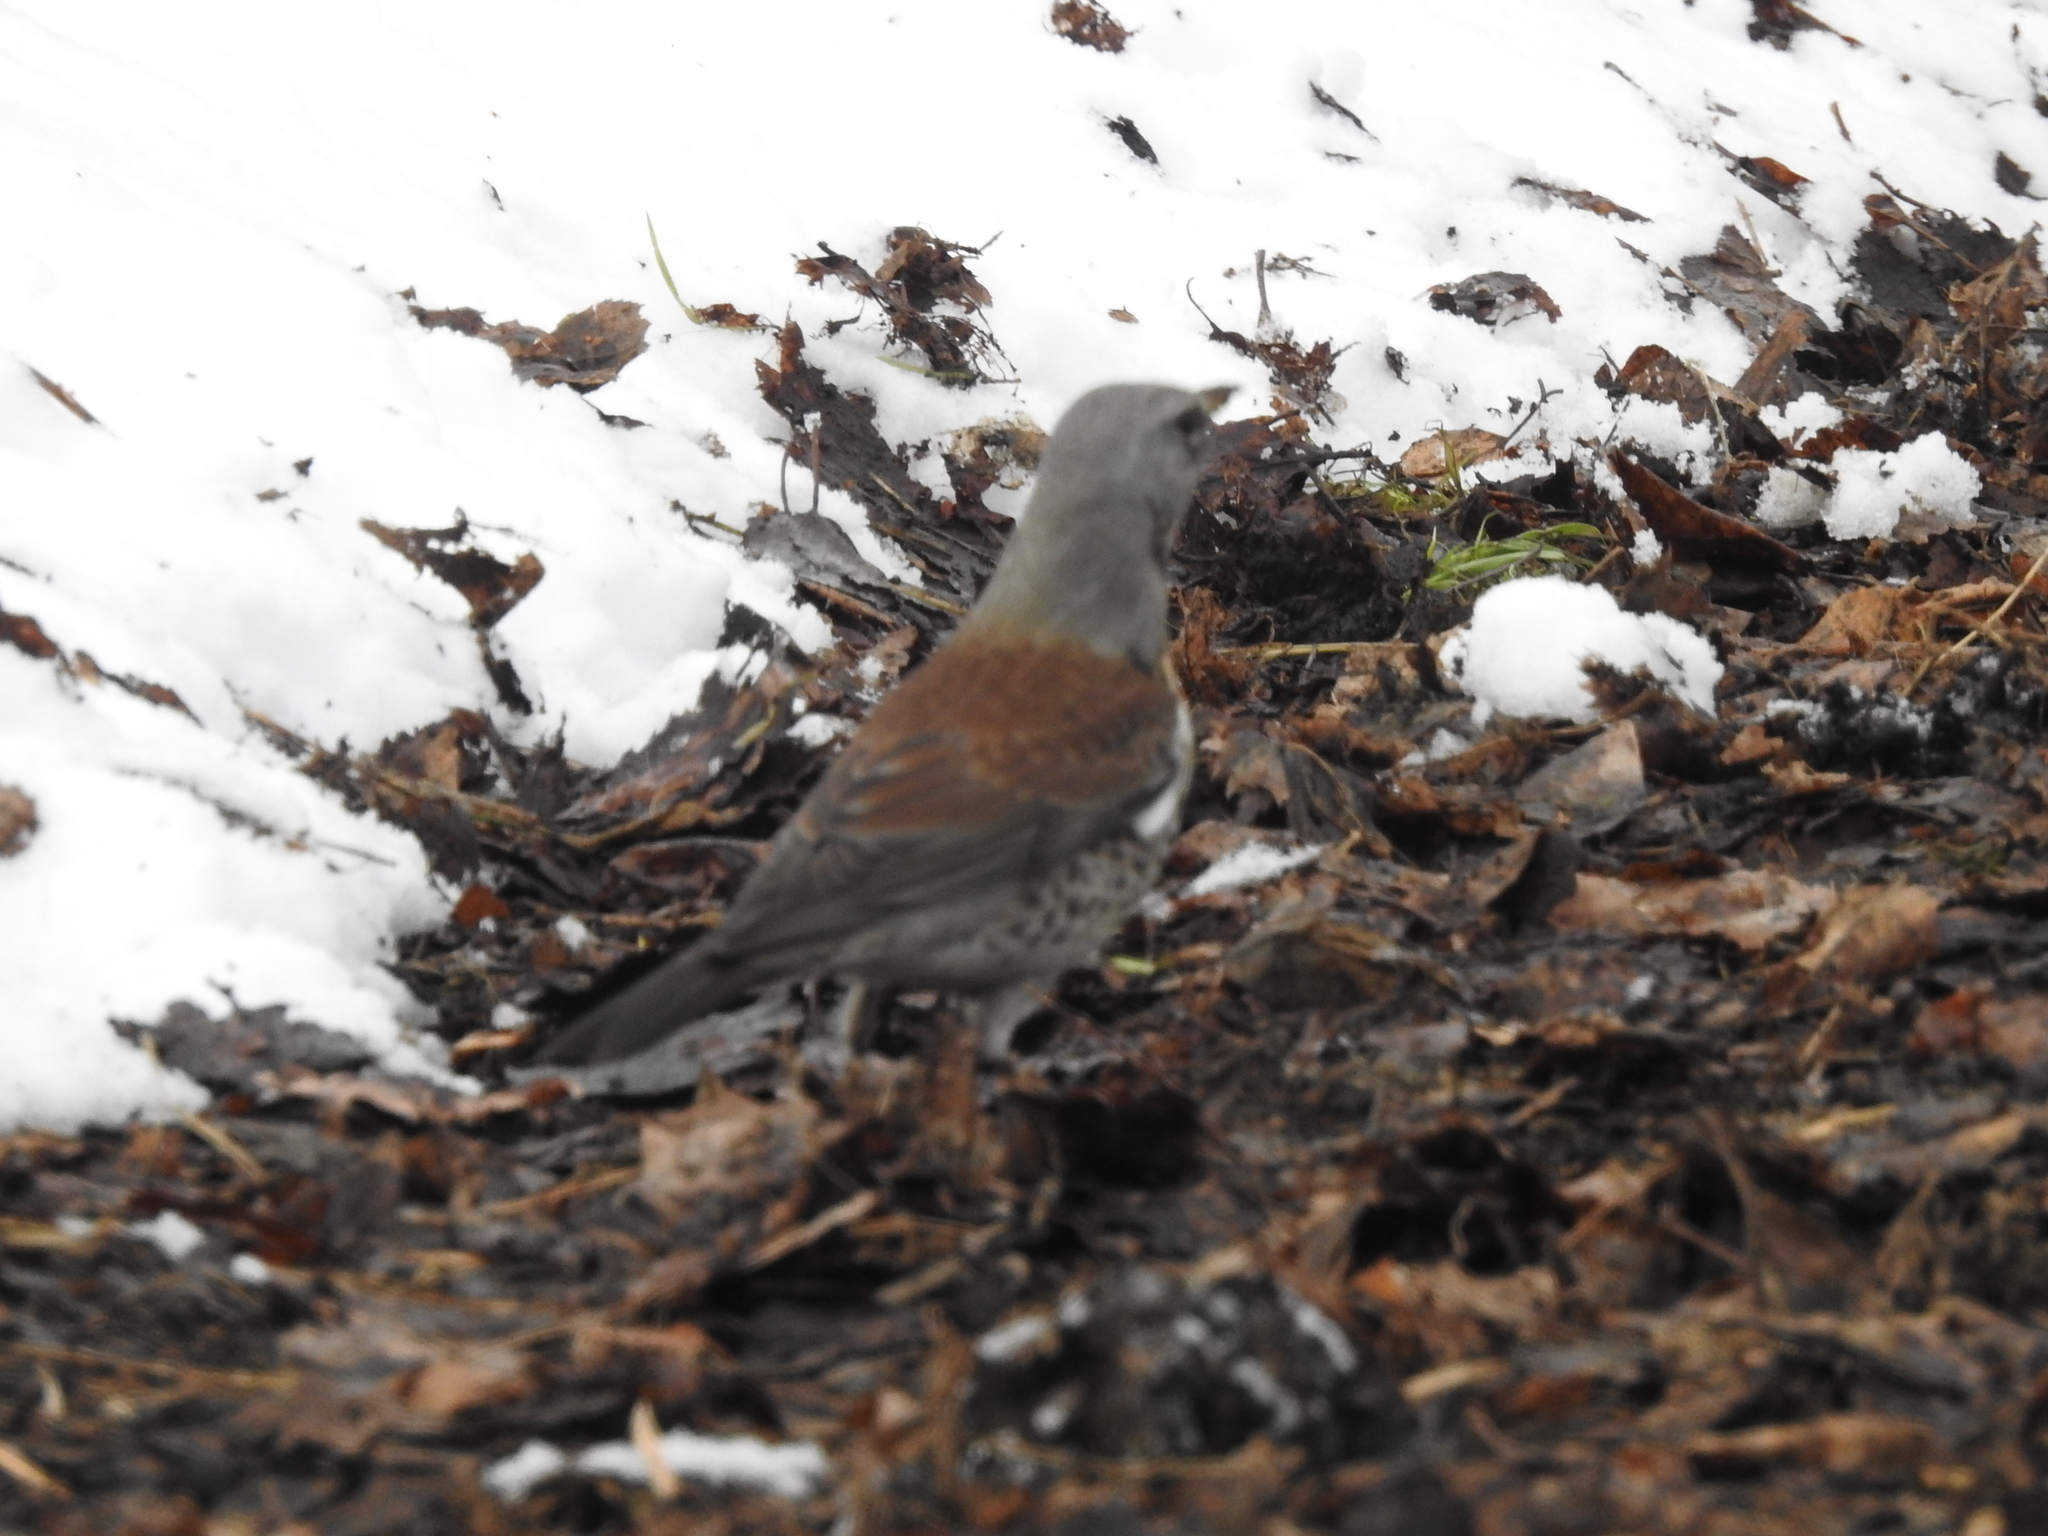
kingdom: Animalia
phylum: Chordata
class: Aves
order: Passeriformes
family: Turdidae
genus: Turdus
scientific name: Turdus pilaris
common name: Fieldfare
